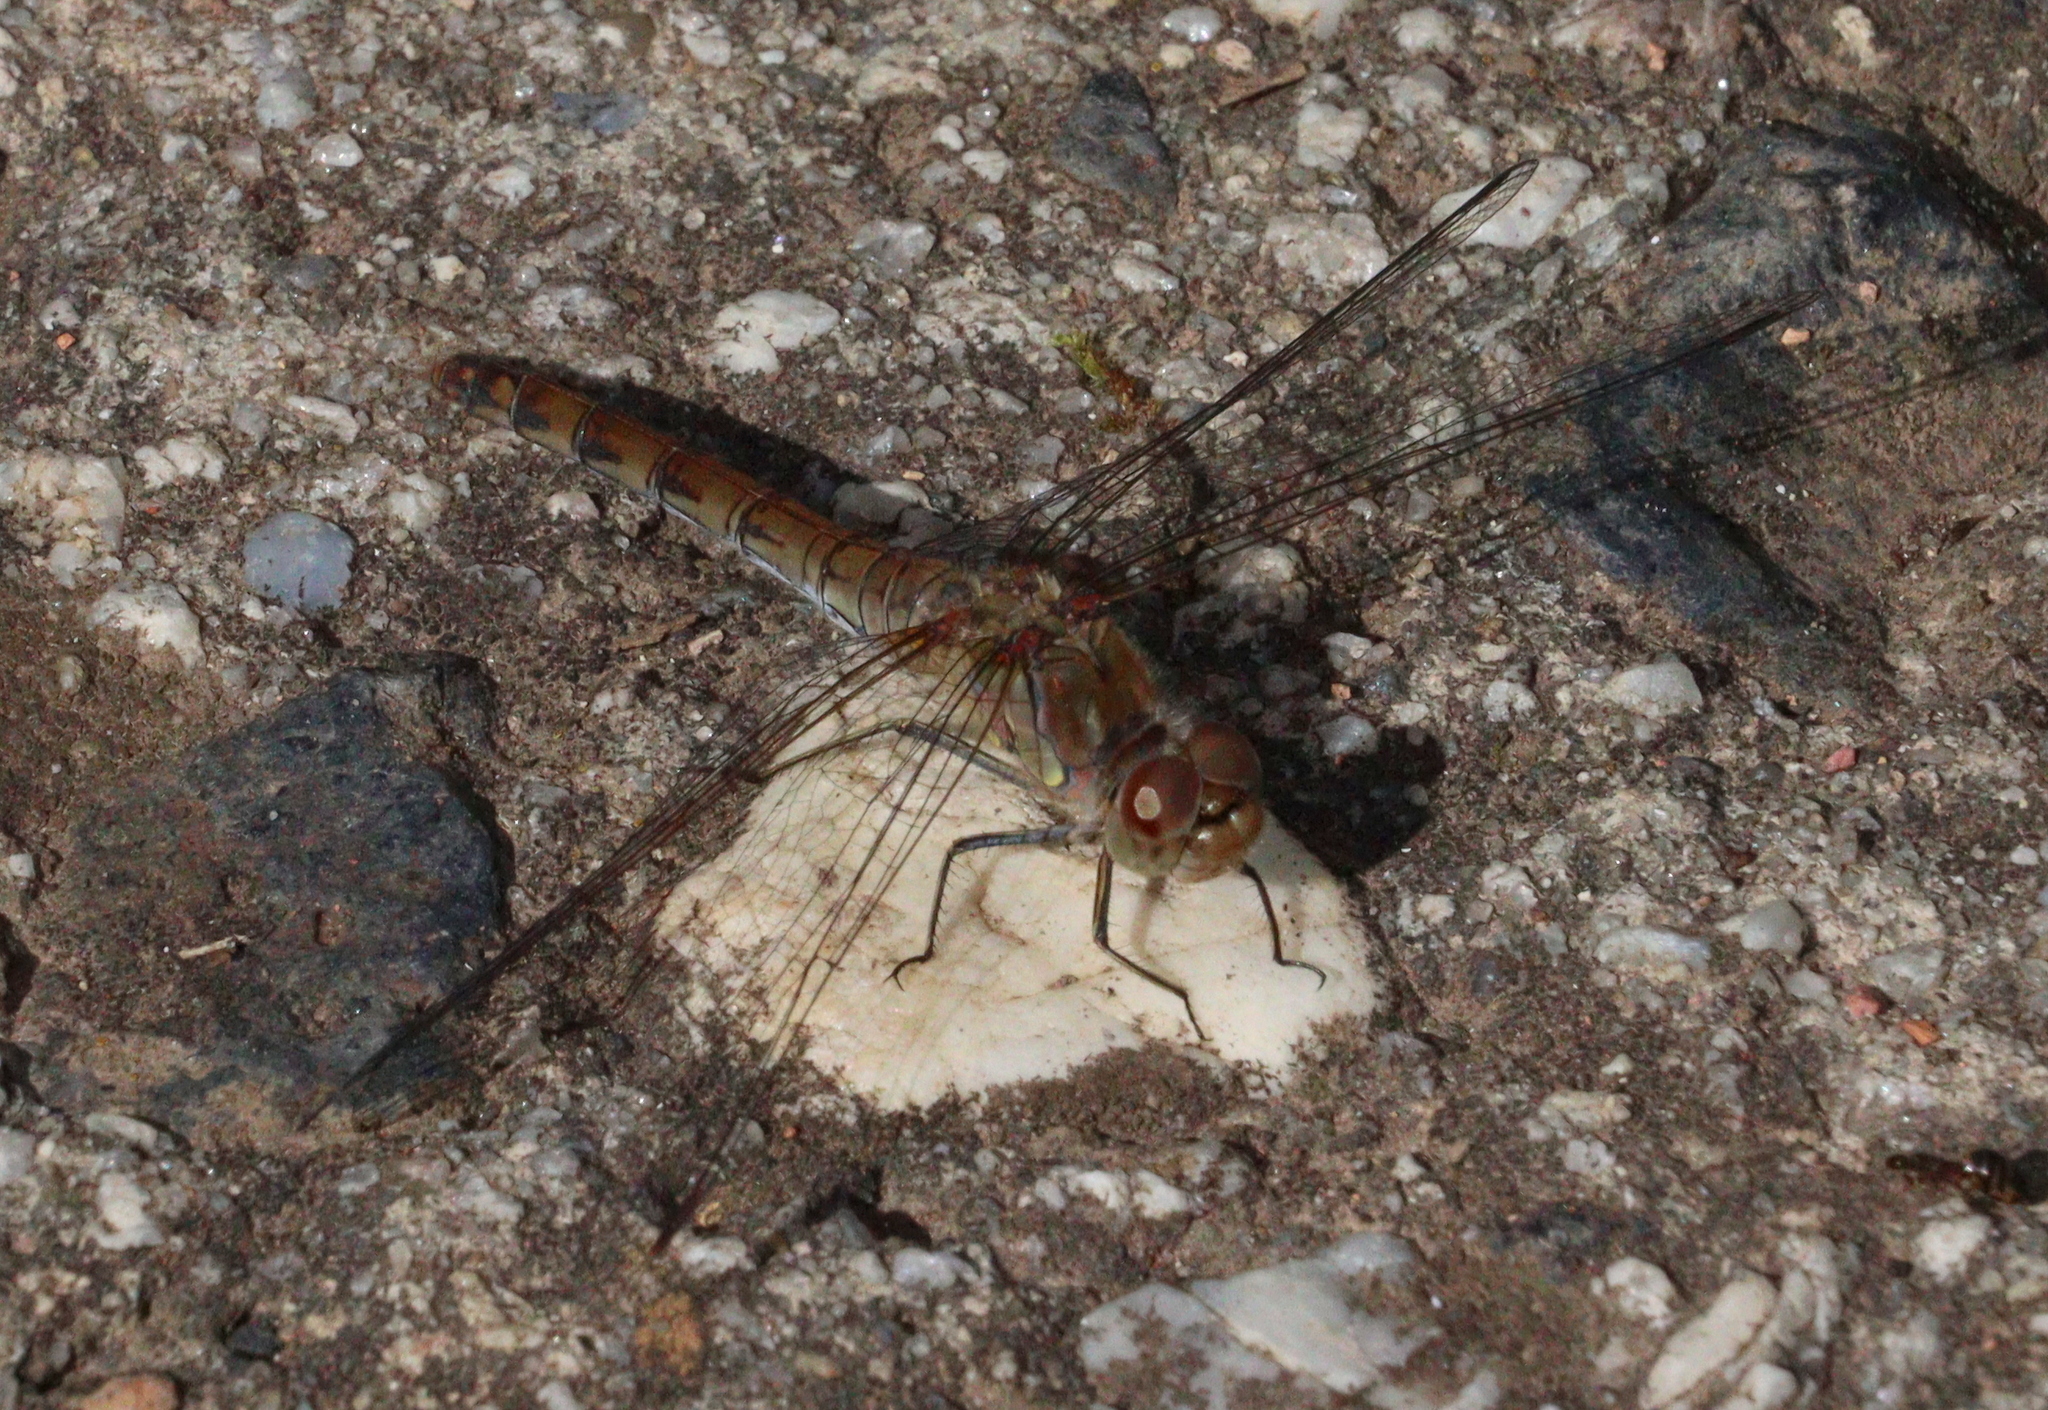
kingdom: Animalia
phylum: Arthropoda
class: Insecta
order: Odonata
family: Libellulidae
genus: Sympetrum
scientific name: Sympetrum striolatum
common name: Common darter
